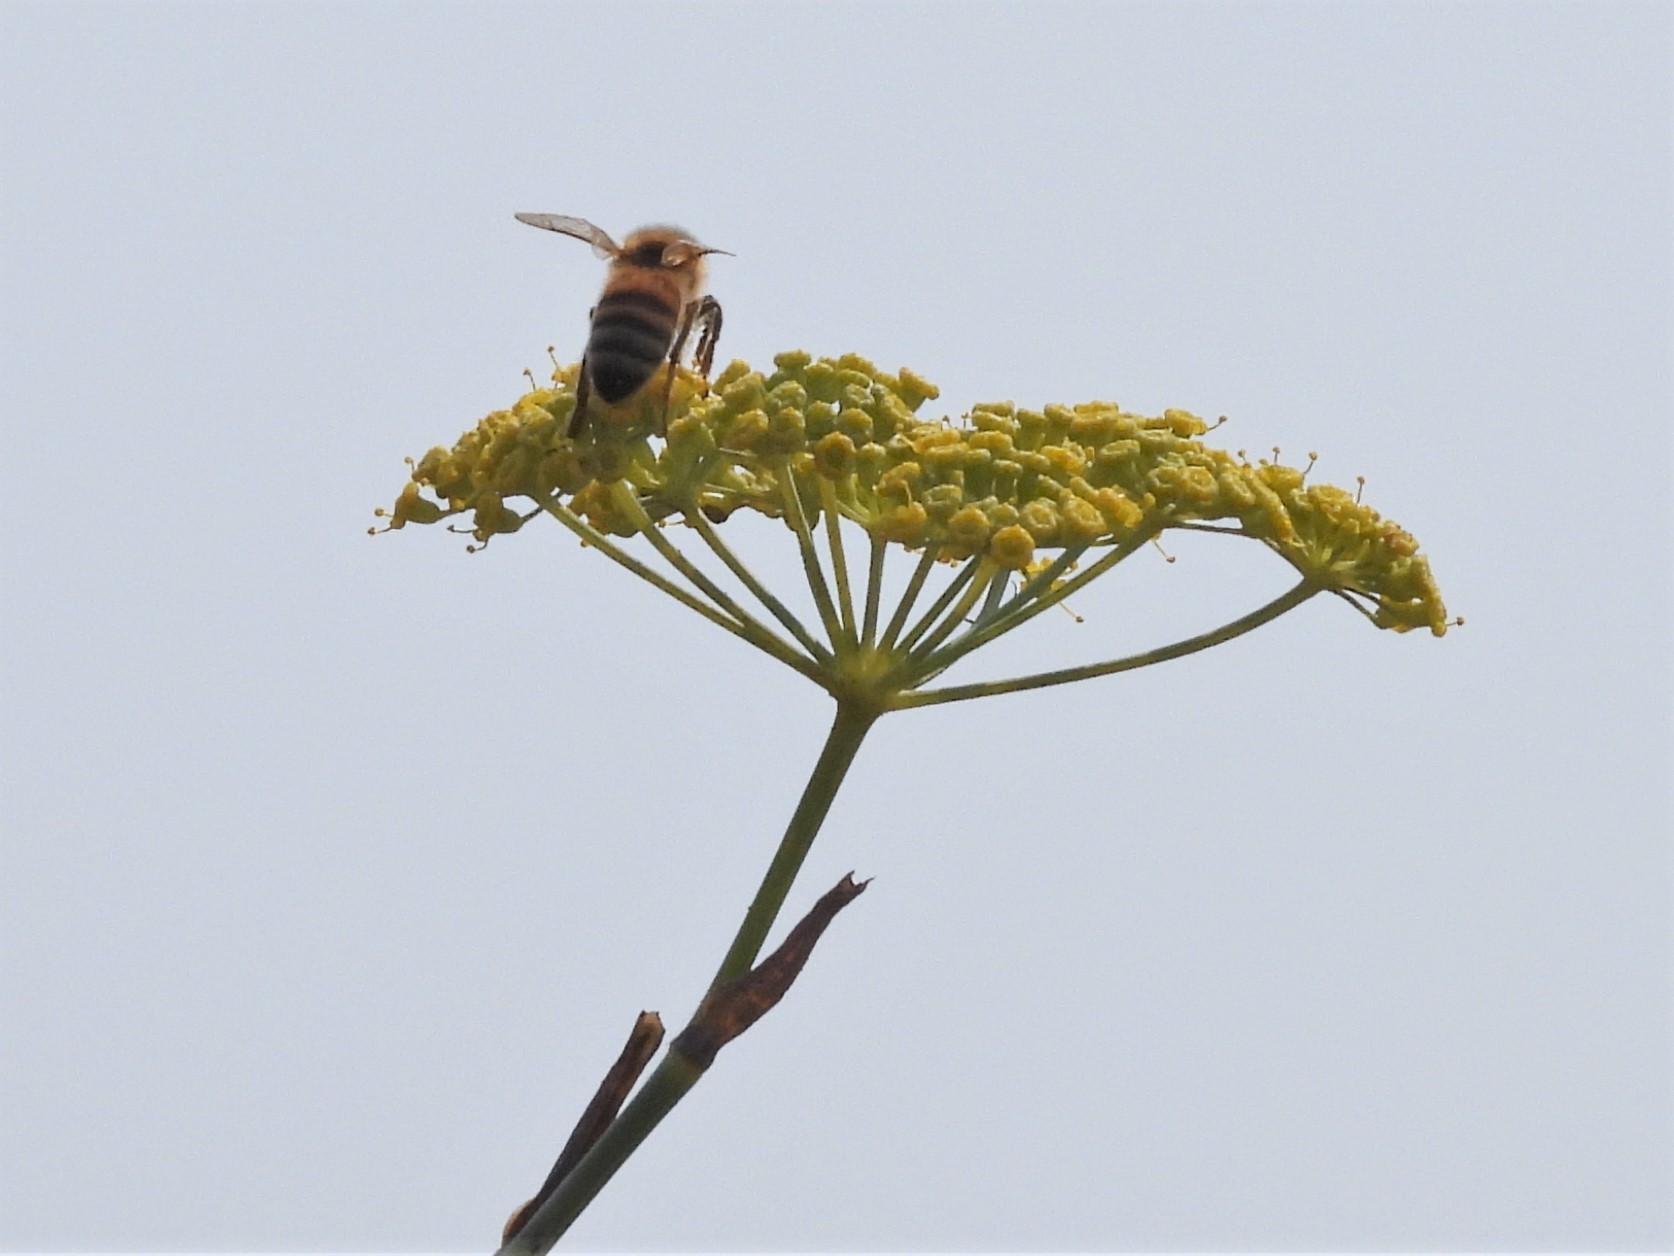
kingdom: Animalia
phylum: Arthropoda
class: Insecta
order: Hymenoptera
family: Apidae
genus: Apis
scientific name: Apis mellifera
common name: Honey bee
